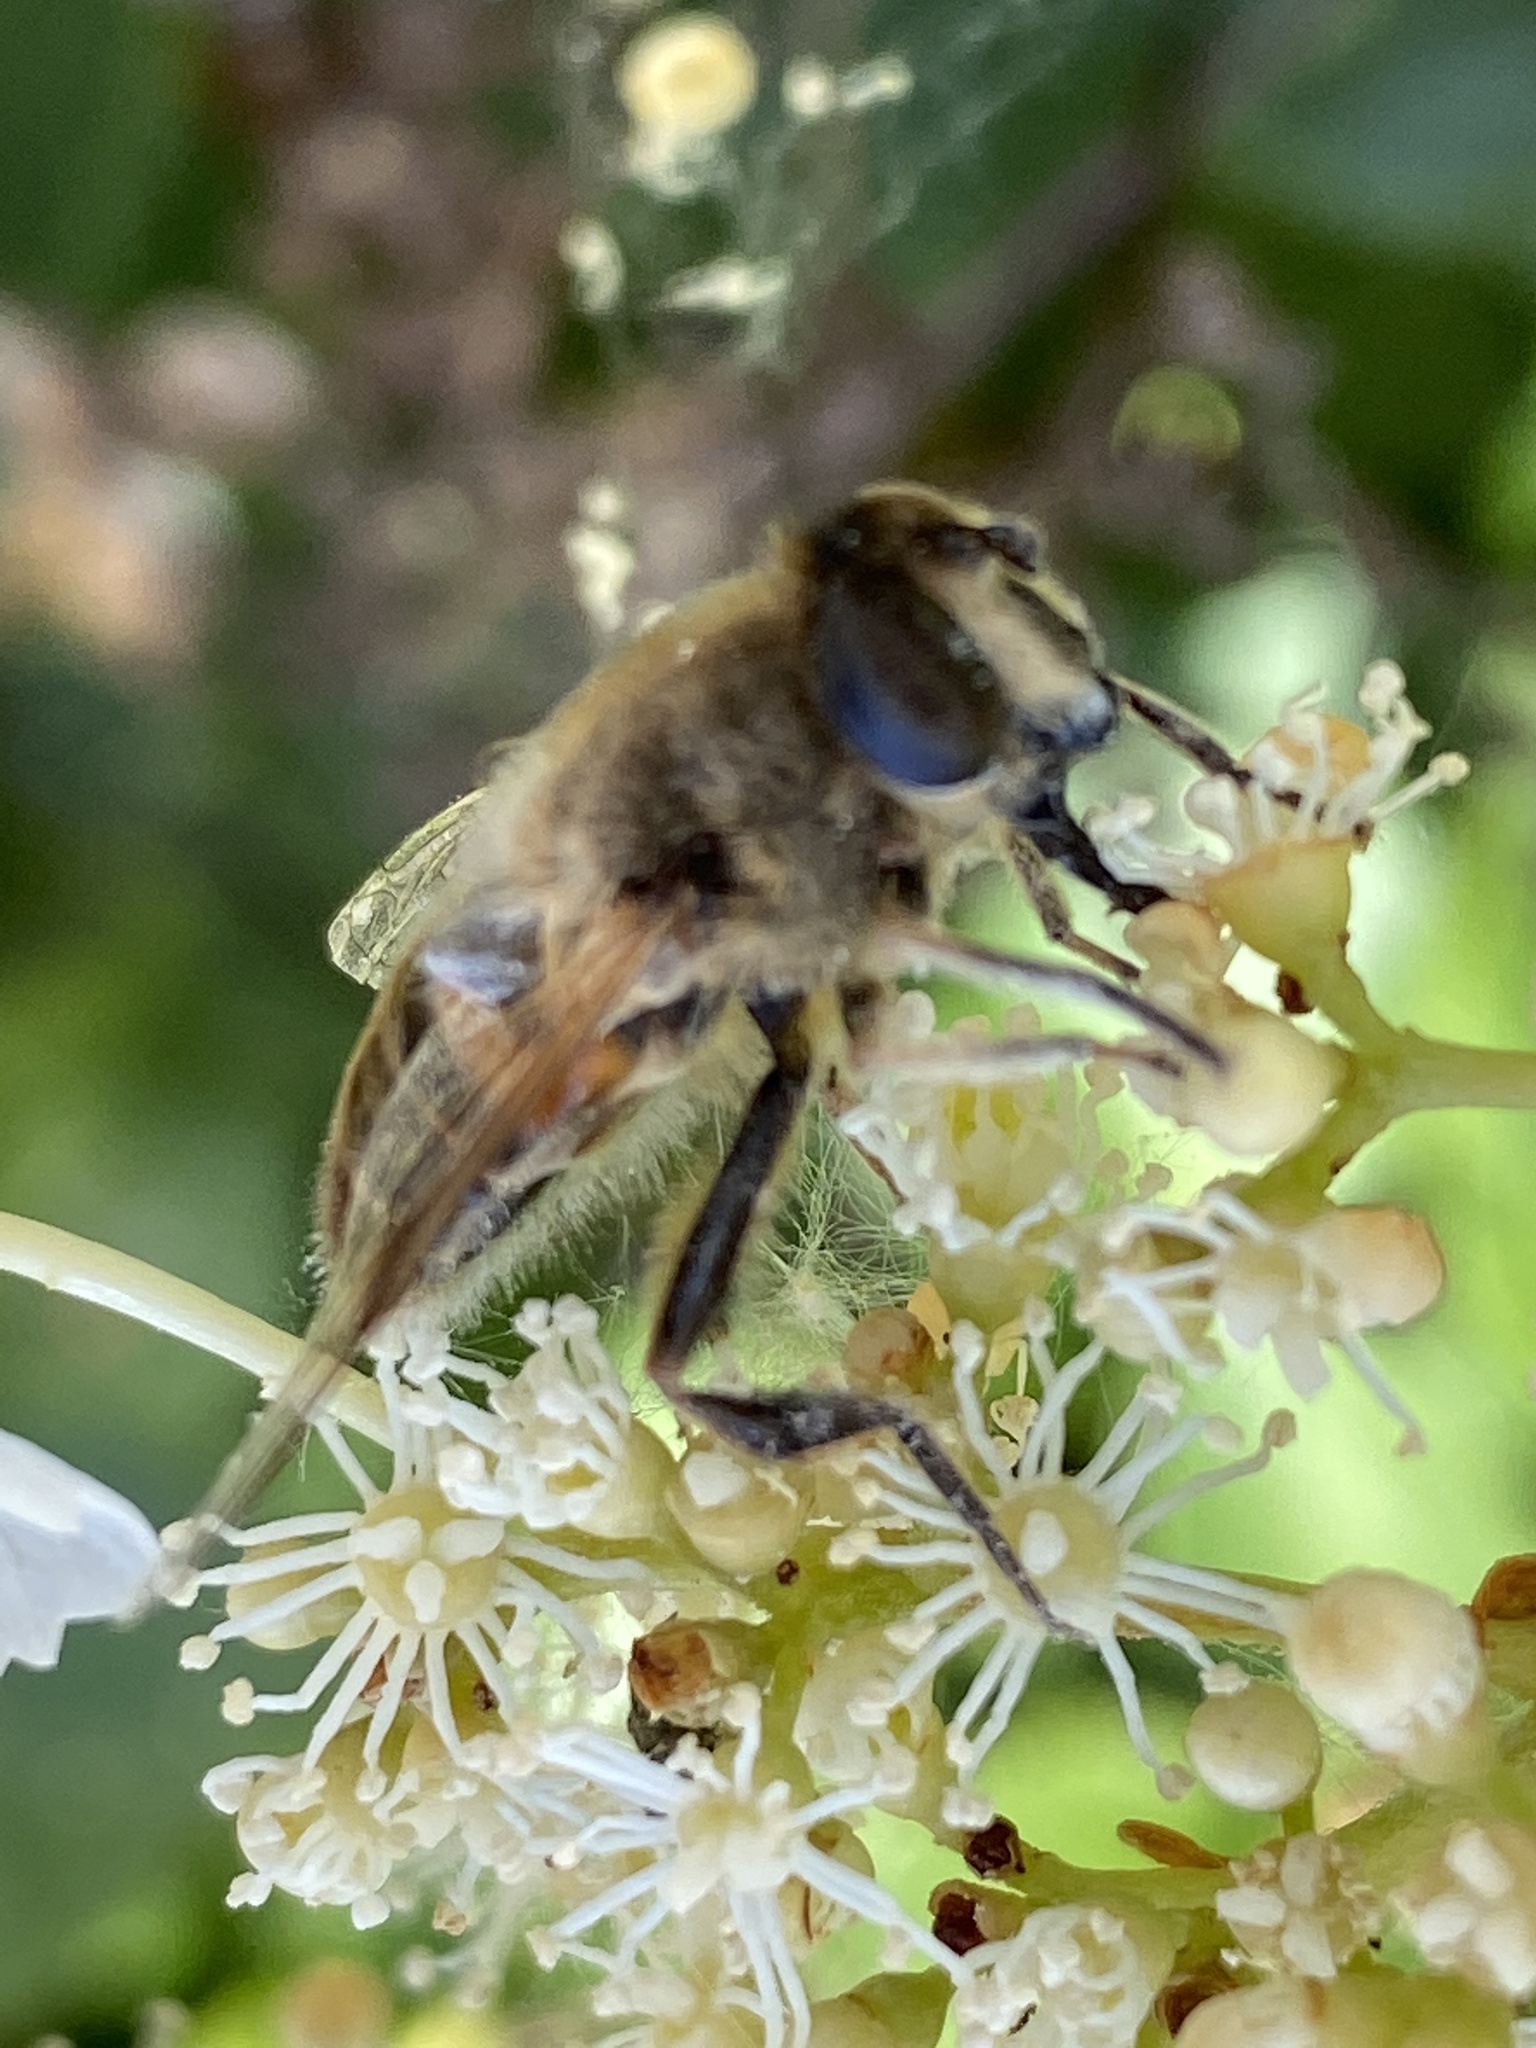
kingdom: Animalia
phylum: Arthropoda
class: Insecta
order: Diptera
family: Syrphidae
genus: Eristalis
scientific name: Eristalis tenax
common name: Drone fly
